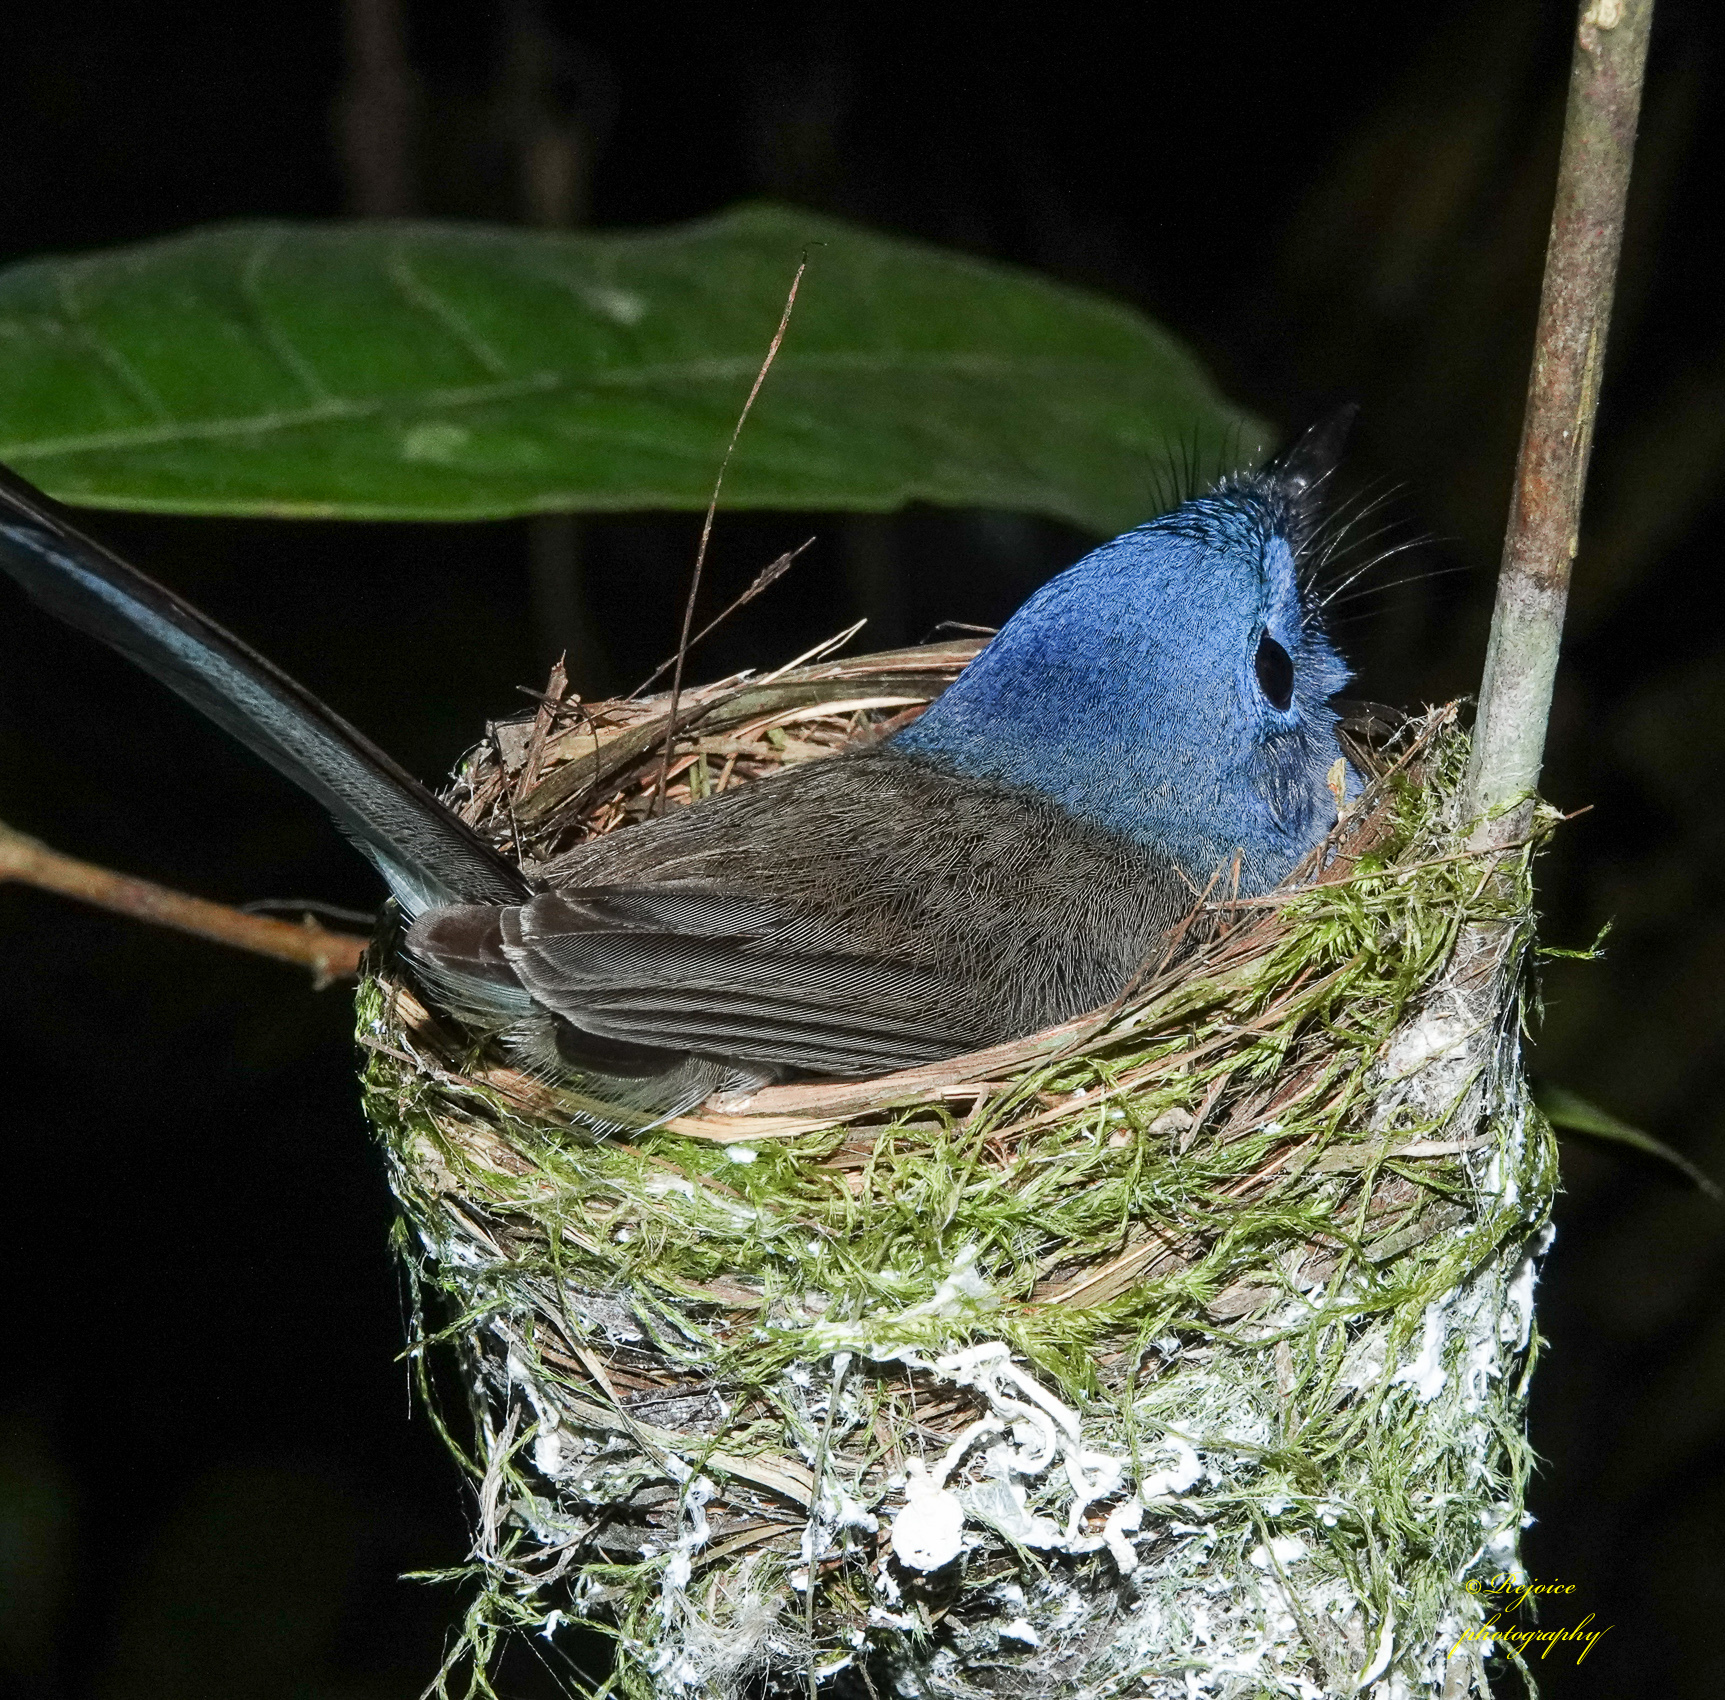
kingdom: Animalia
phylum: Chordata
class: Aves
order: Passeriformes
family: Monarchidae
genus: Hypothymis
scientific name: Hypothymis azurea
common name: Black-naped monarch
